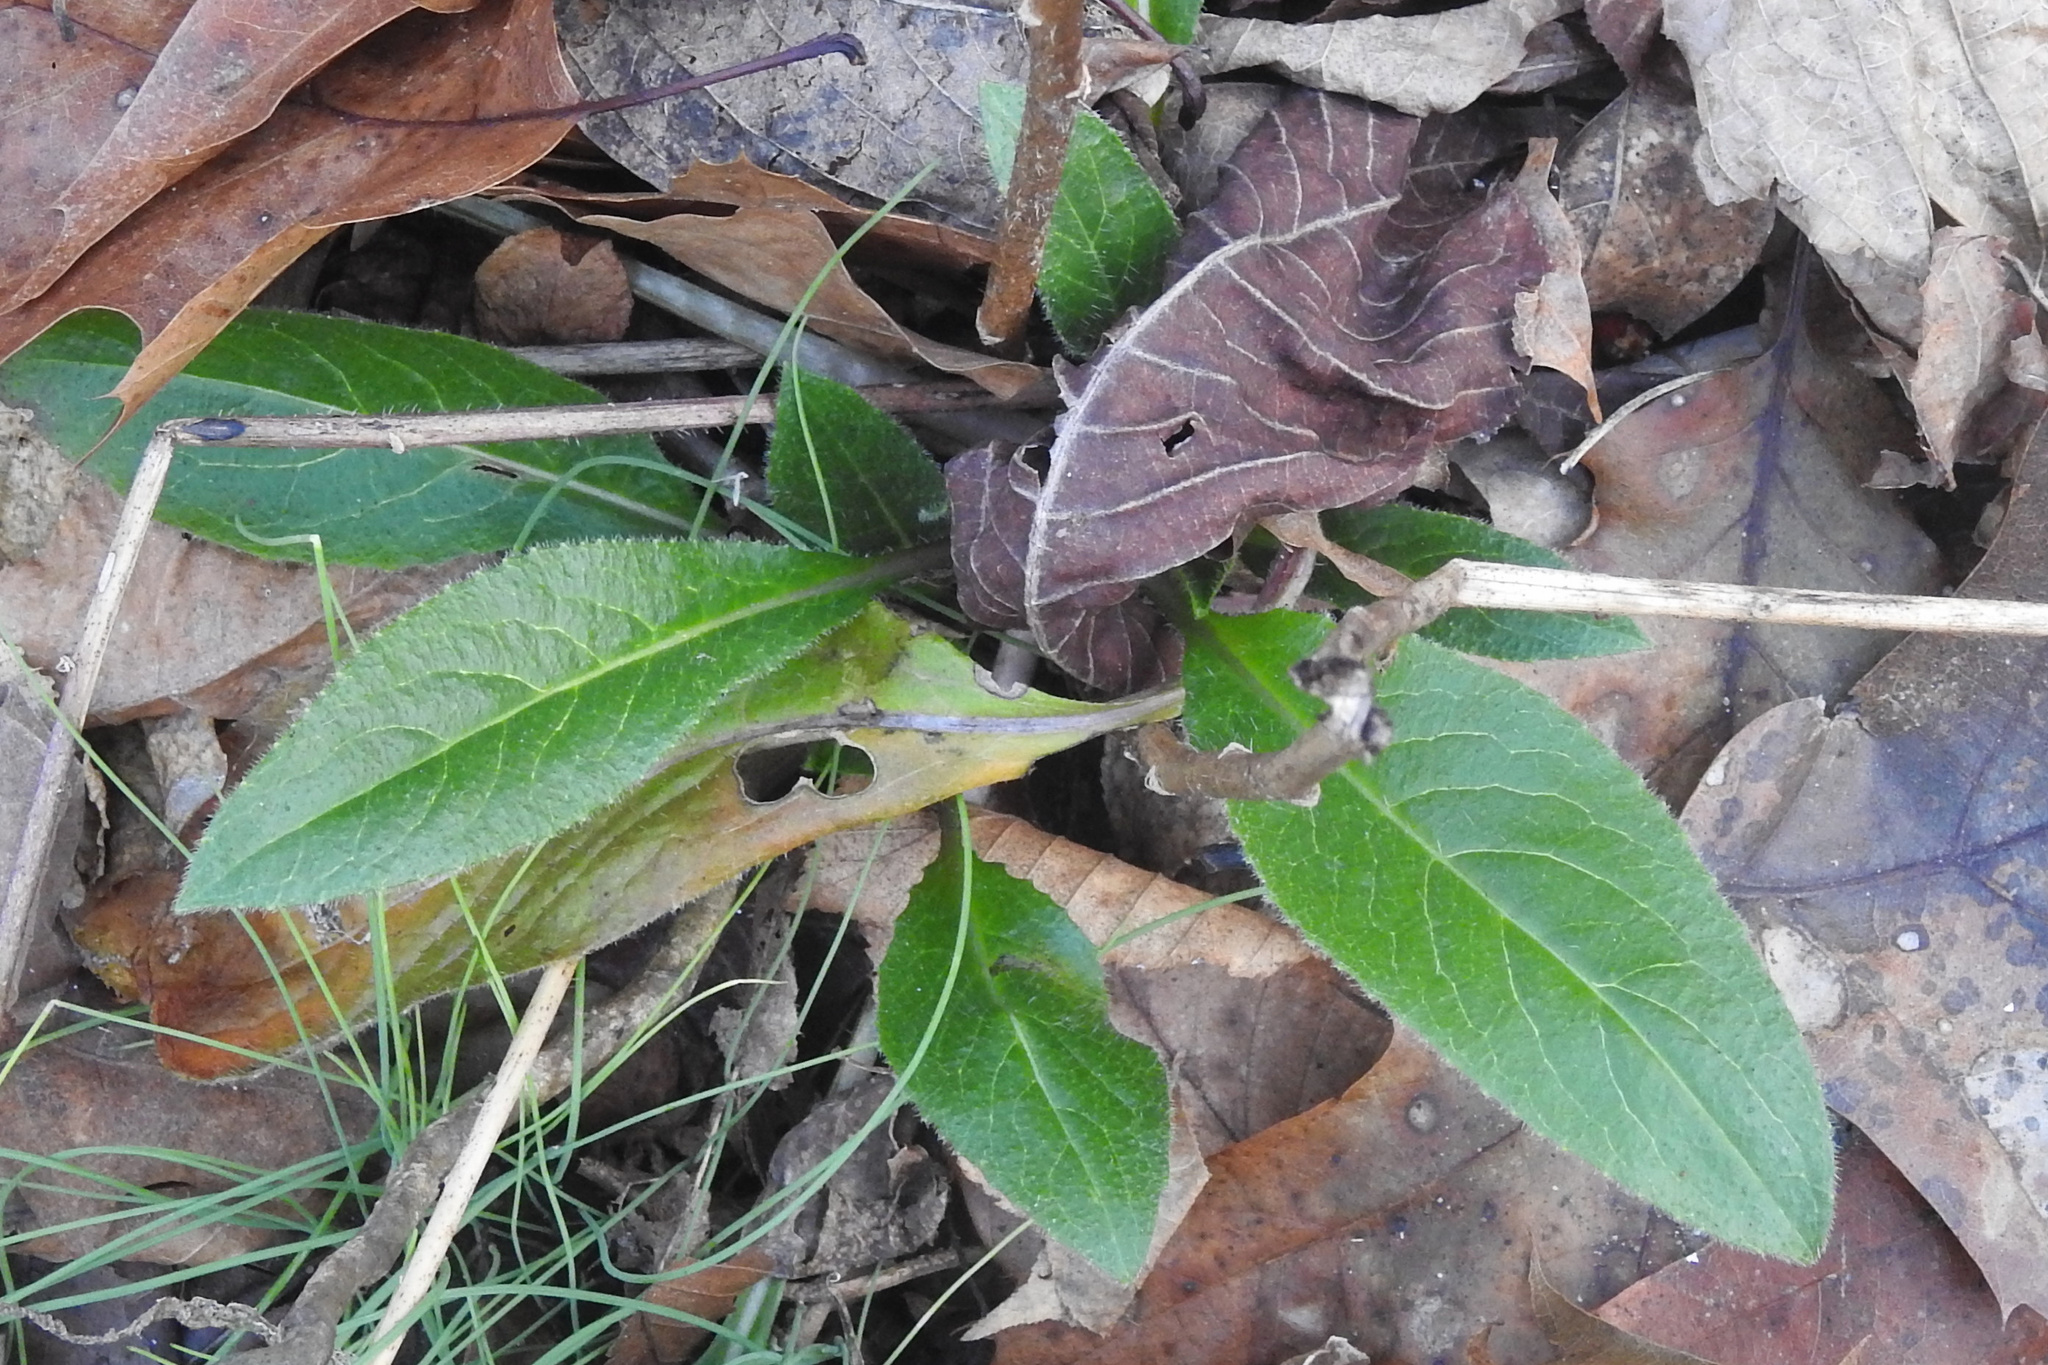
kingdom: Plantae
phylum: Tracheophyta
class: Magnoliopsida
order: Brassicales
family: Brassicaceae
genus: Hesperis
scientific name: Hesperis matronalis
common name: Dame's-violet
